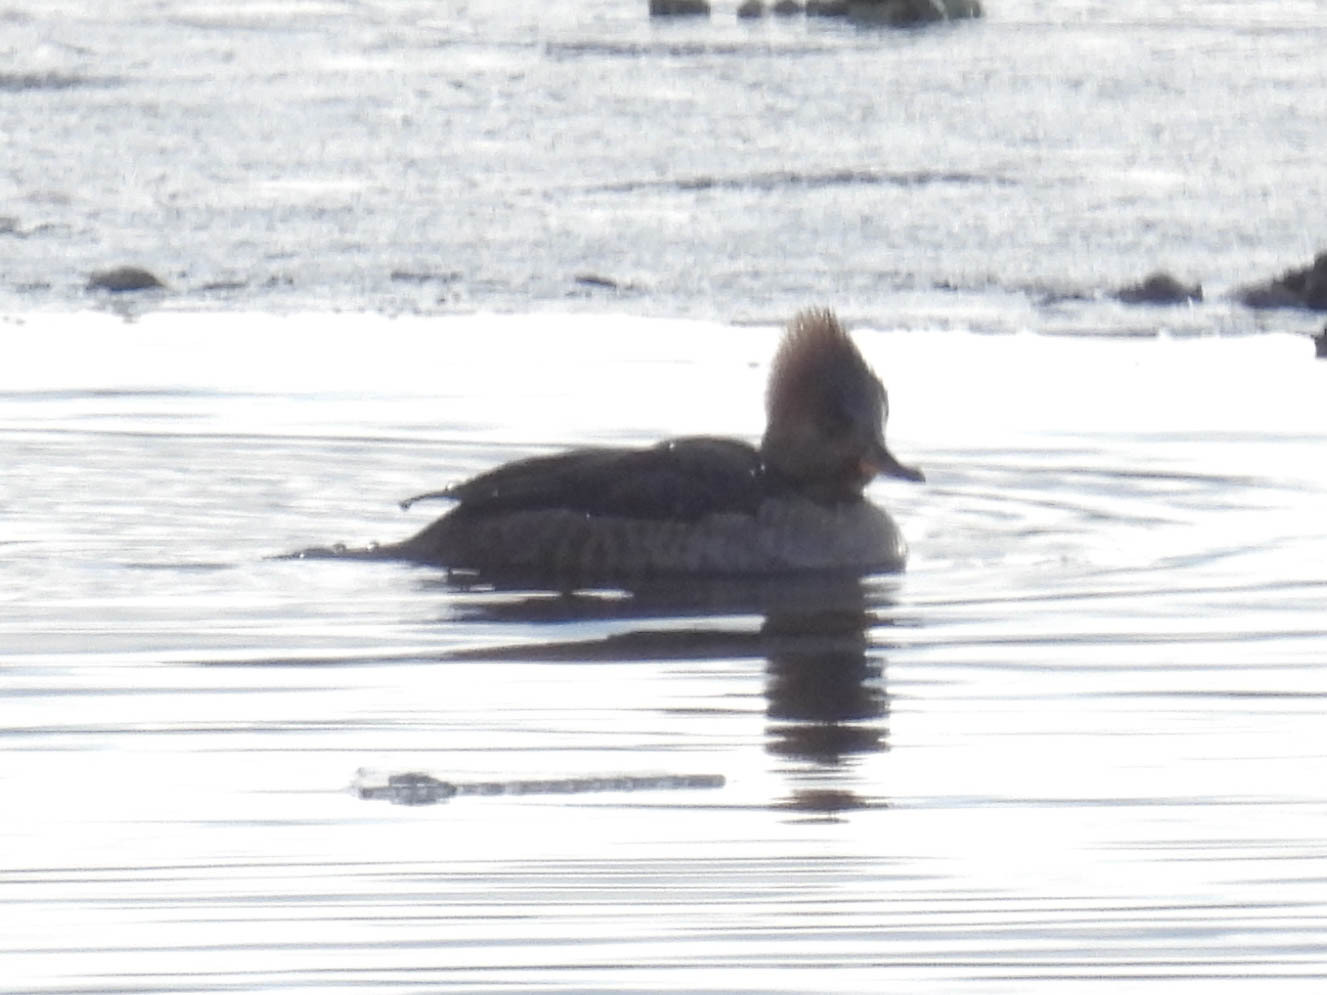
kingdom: Animalia
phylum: Chordata
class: Aves
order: Anseriformes
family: Anatidae
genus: Lophodytes
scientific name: Lophodytes cucullatus
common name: Hooded merganser
